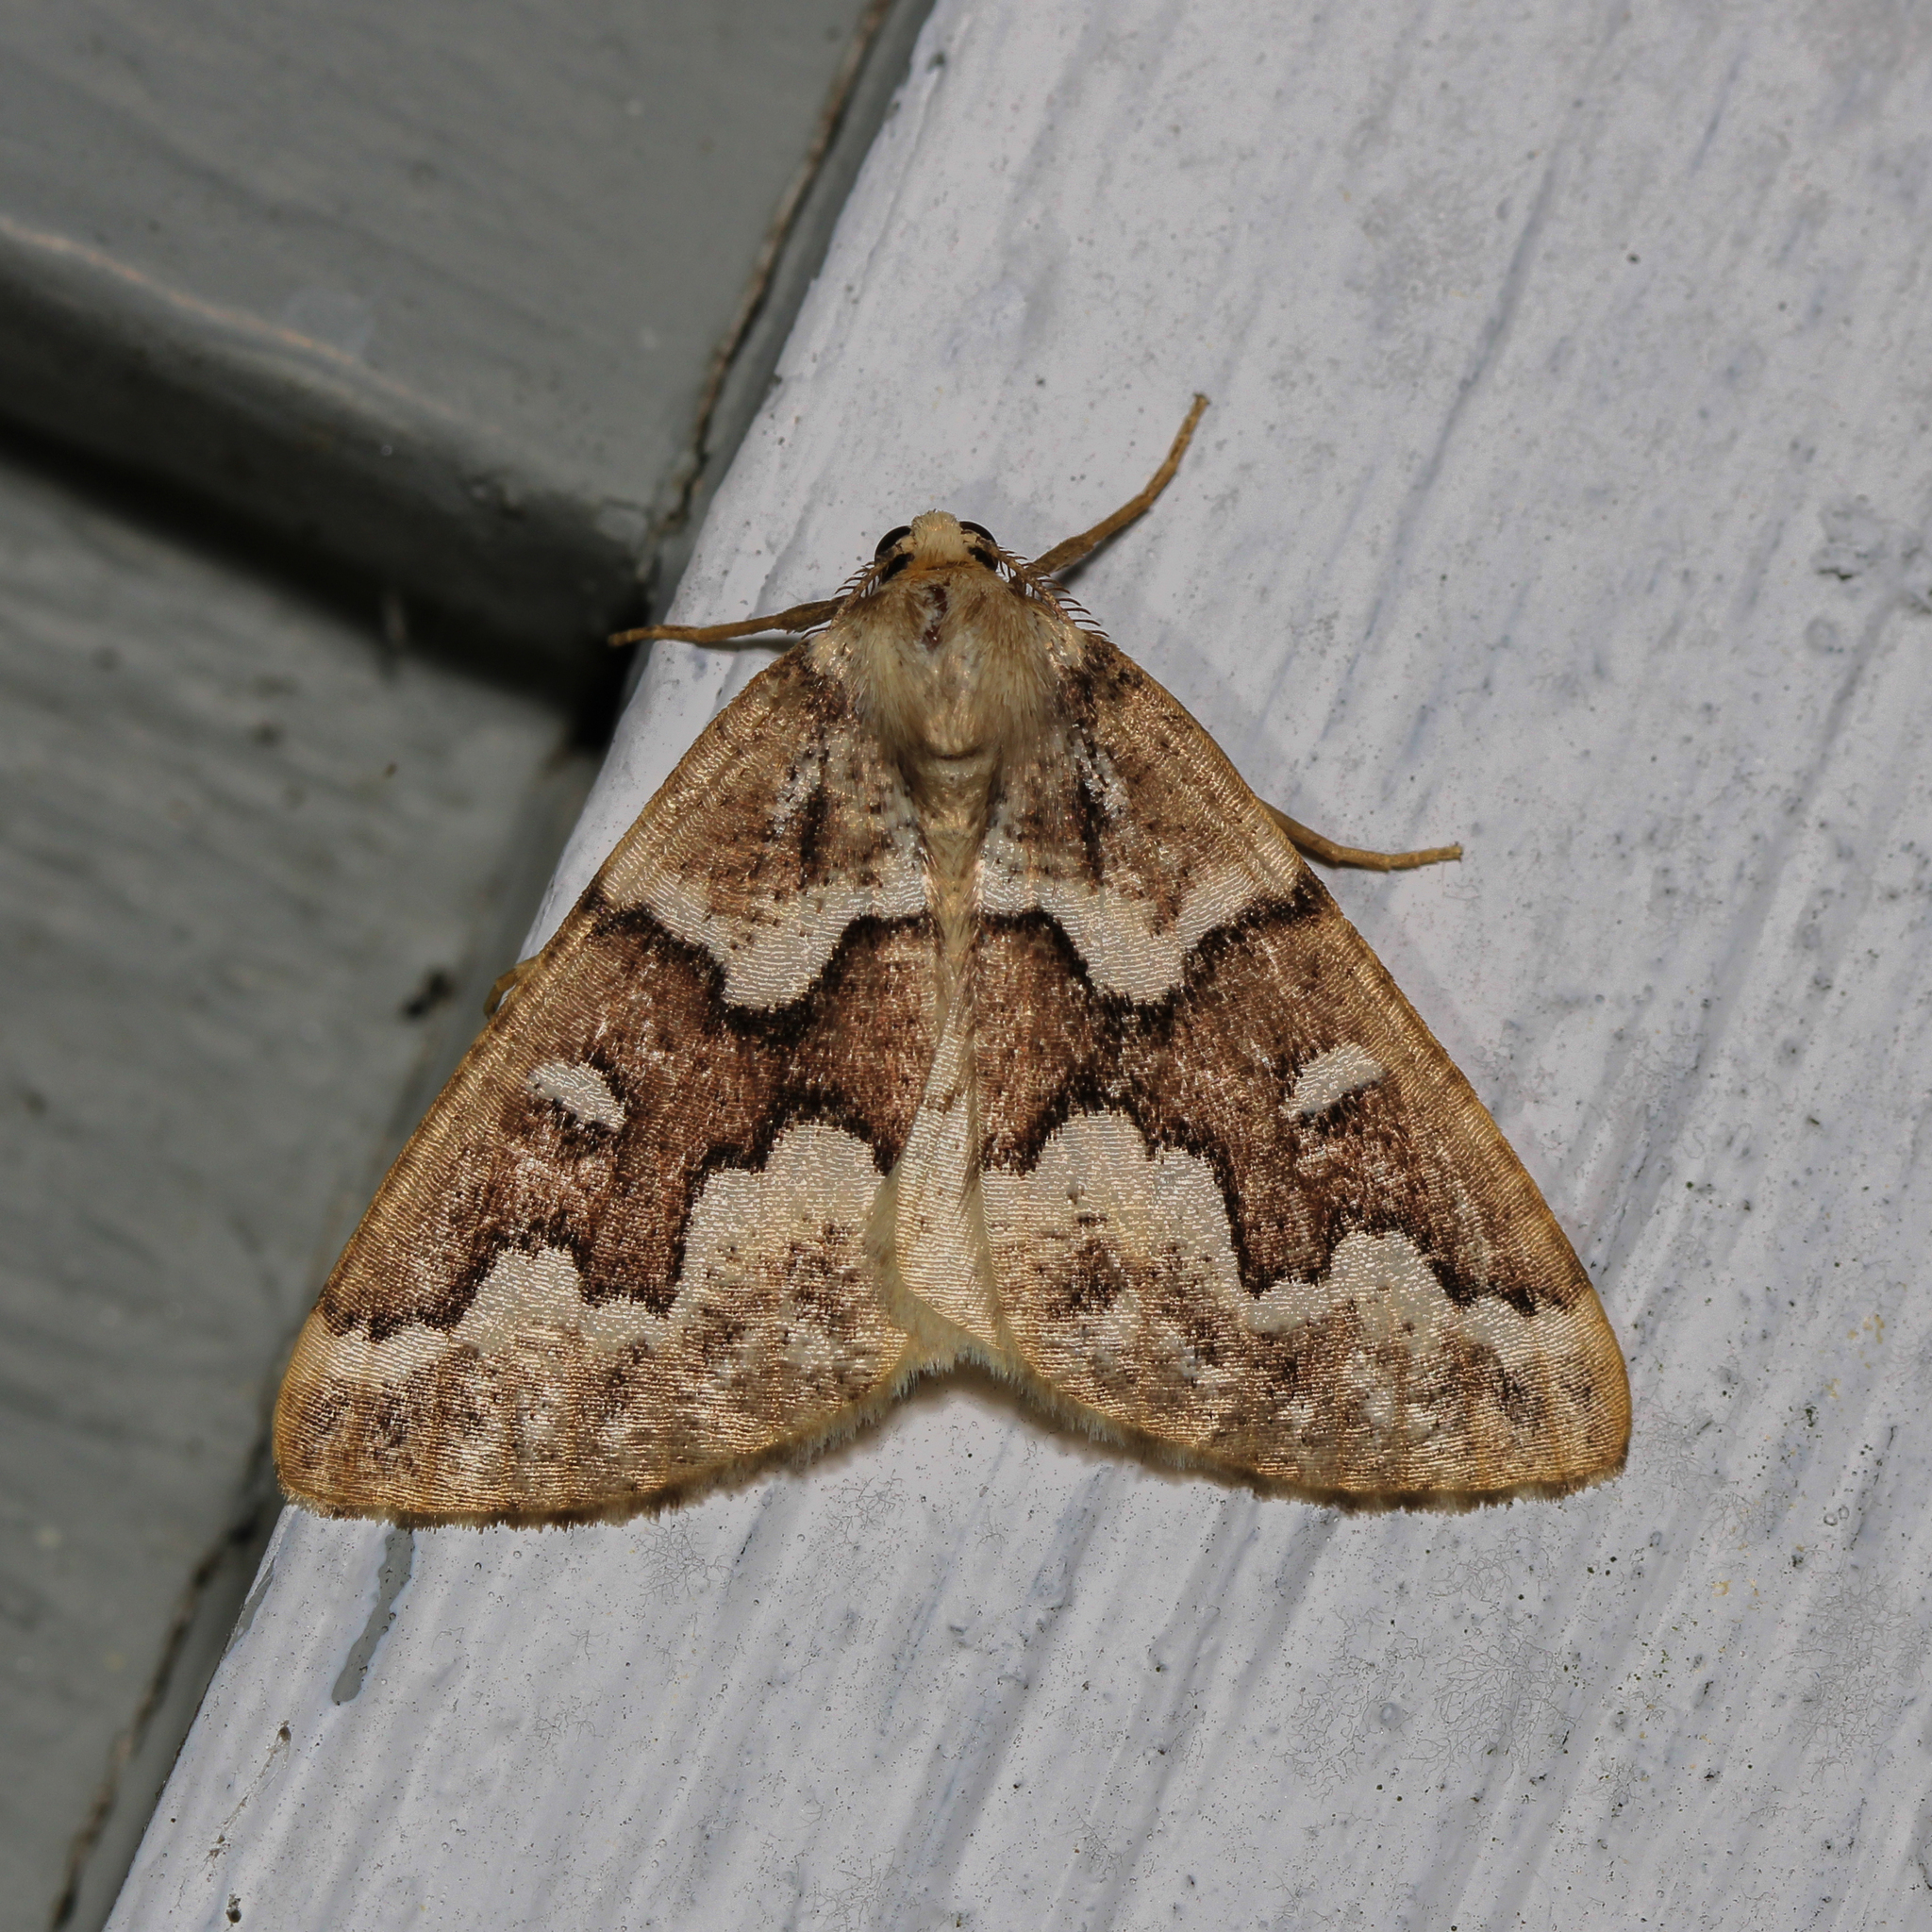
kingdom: Animalia
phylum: Arthropoda
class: Insecta
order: Lepidoptera
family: Geometridae
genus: Caripeta
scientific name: Caripeta divisata
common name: Gray spruce looper
